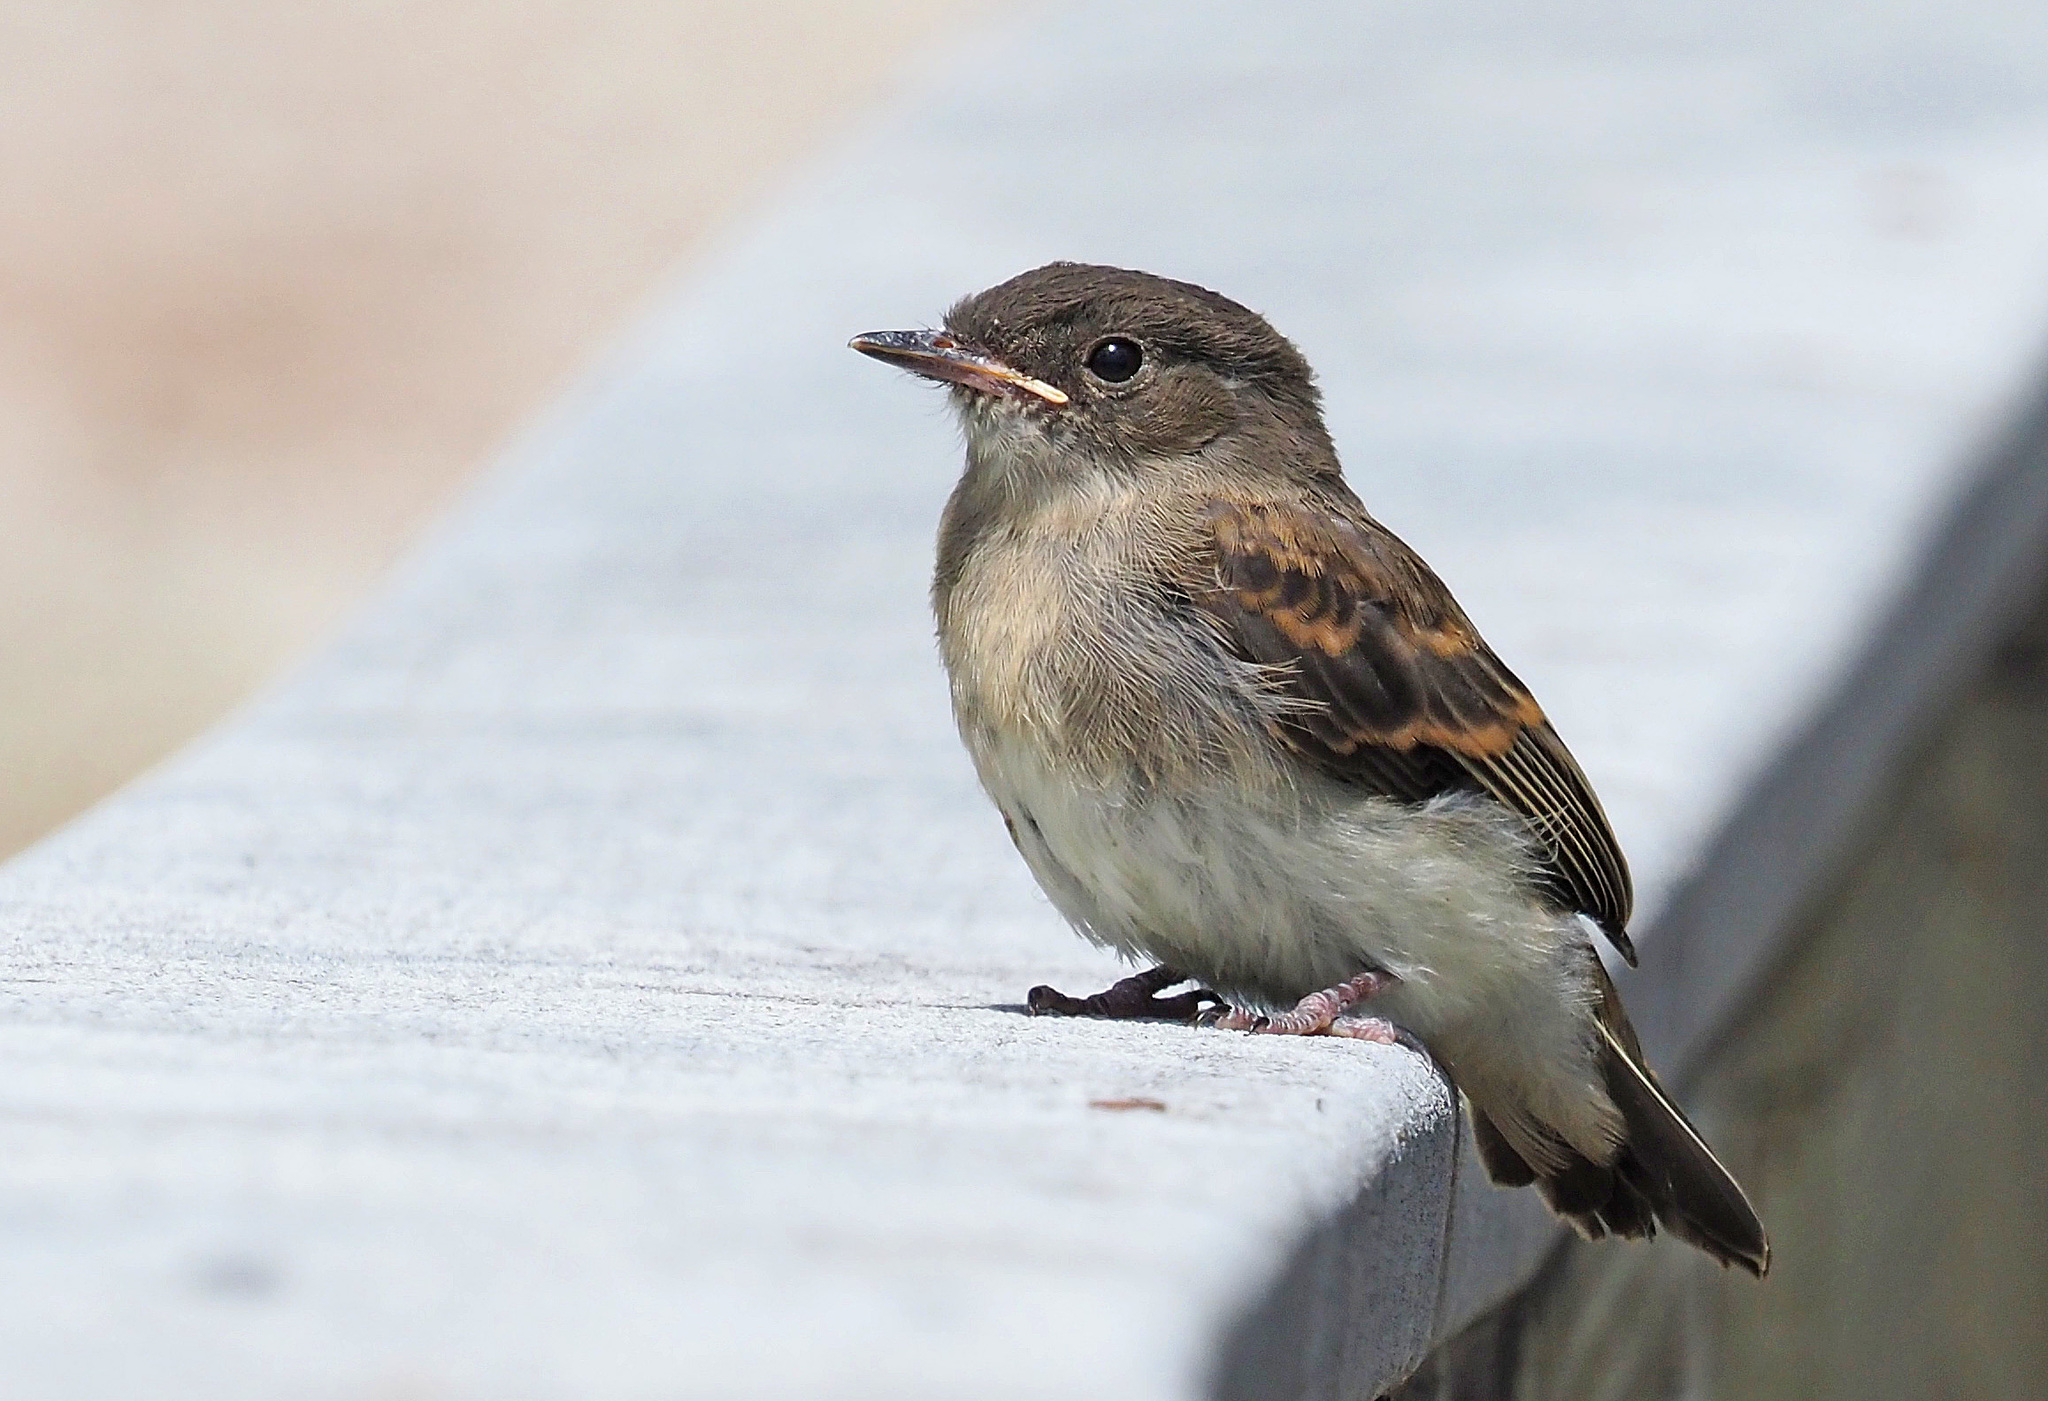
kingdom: Animalia
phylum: Chordata
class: Aves
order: Passeriformes
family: Tyrannidae
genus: Sayornis
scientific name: Sayornis phoebe
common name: Eastern phoebe
